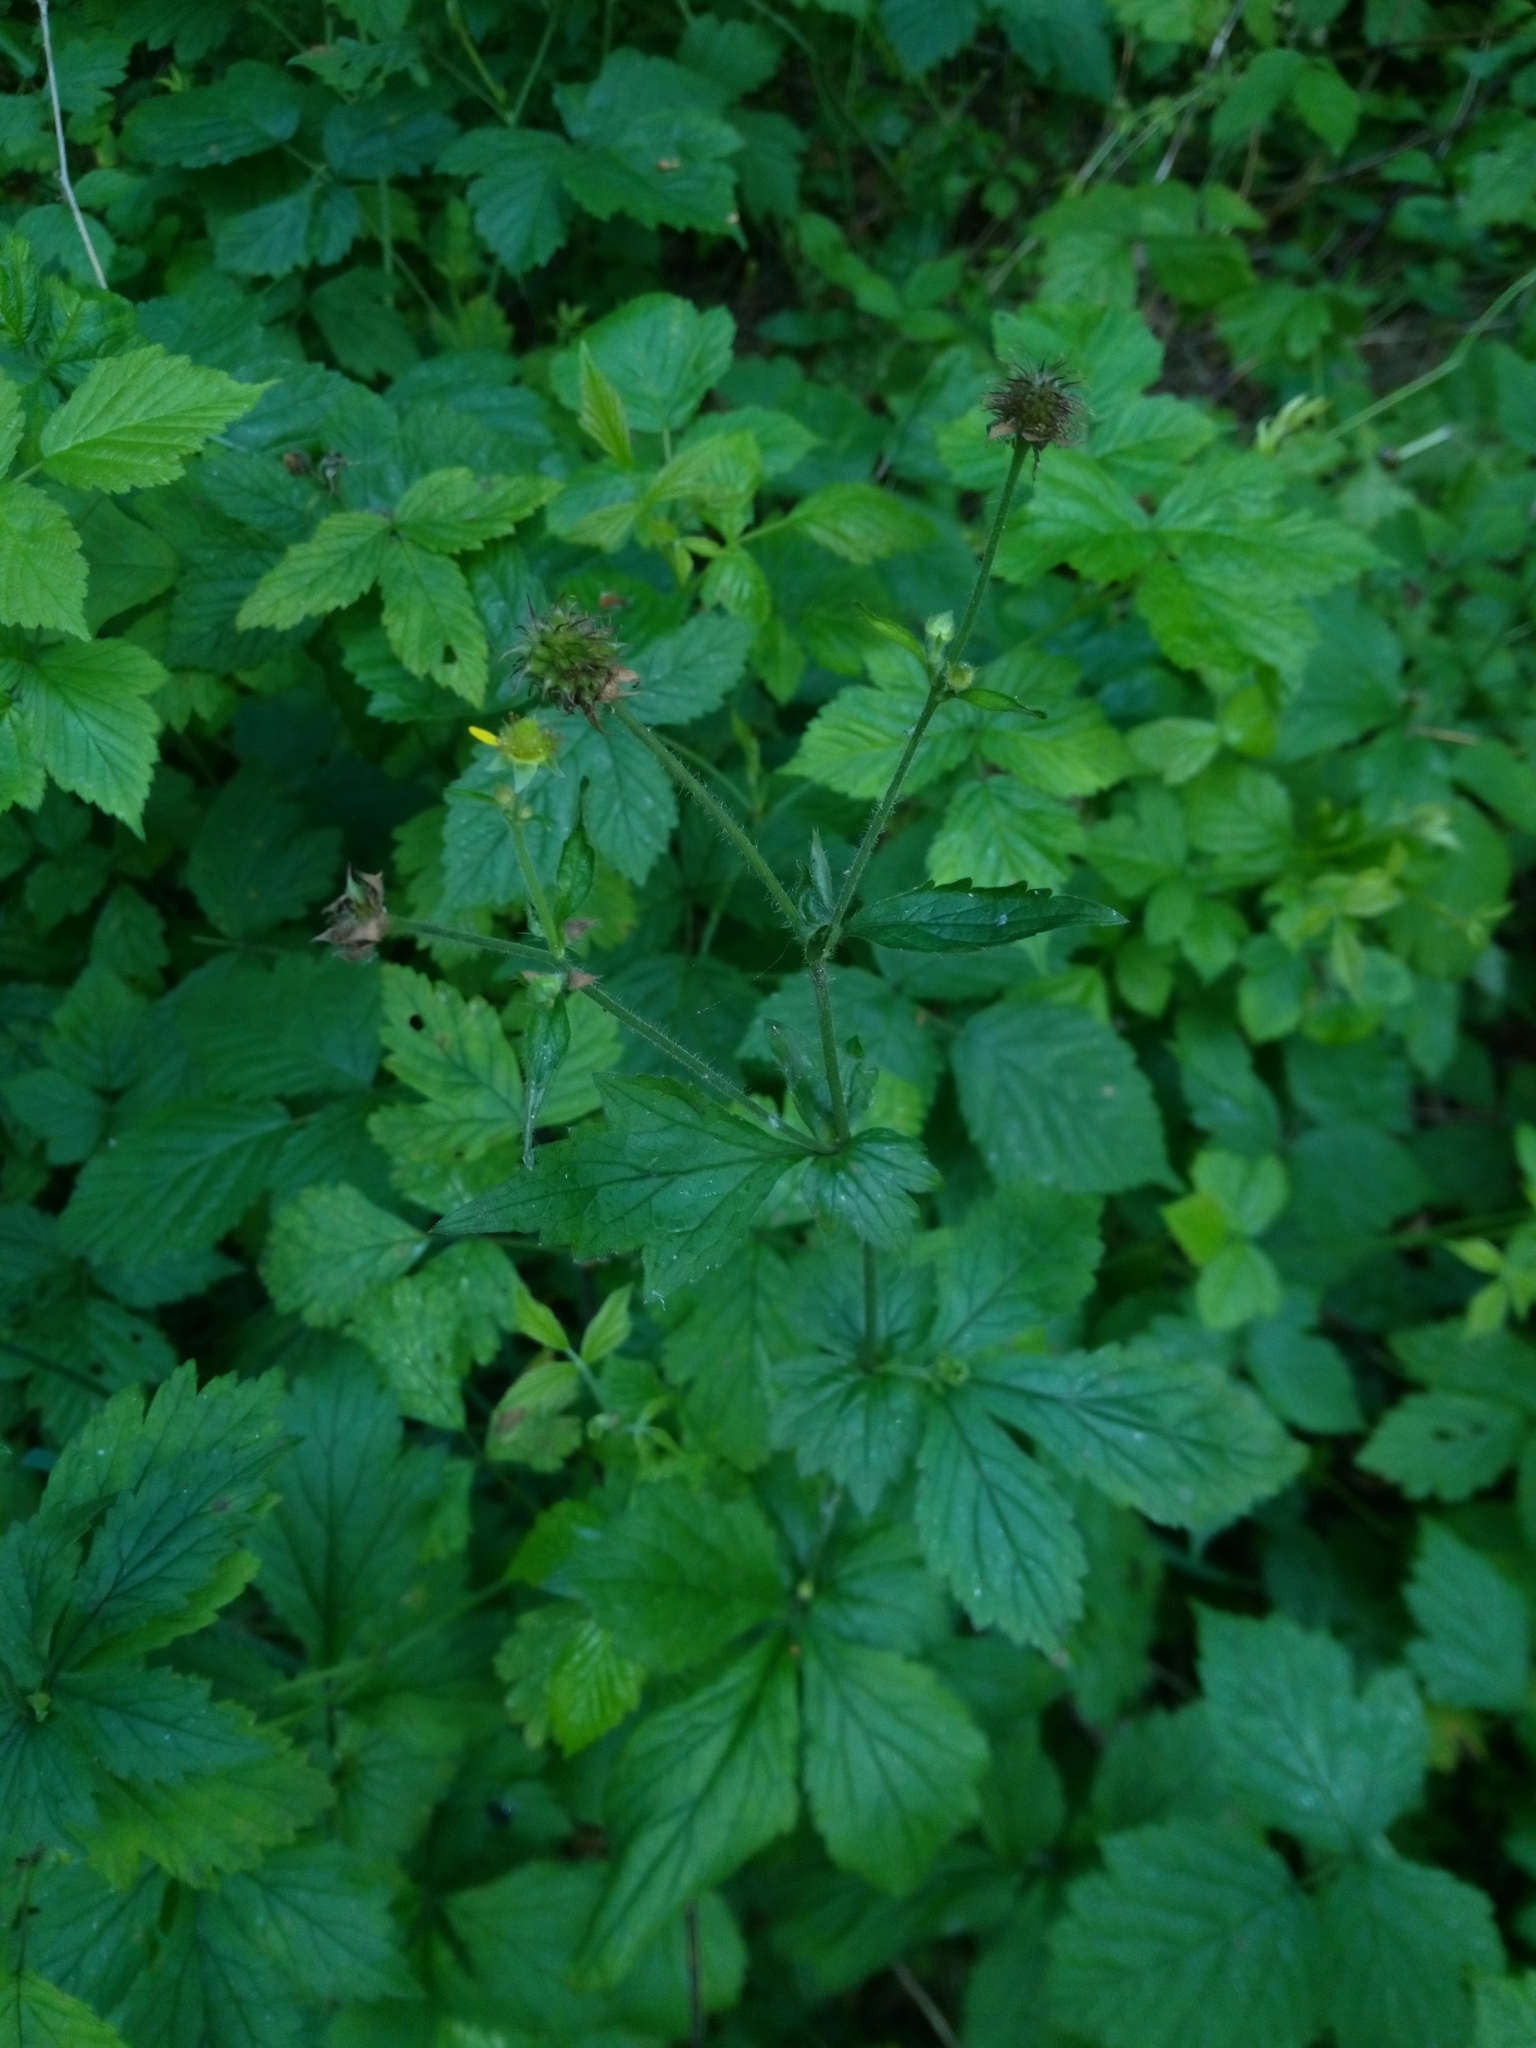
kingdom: Plantae
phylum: Tracheophyta
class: Magnoliopsida
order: Rosales
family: Rosaceae
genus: Geum
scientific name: Geum urbanum
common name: Wood avens
